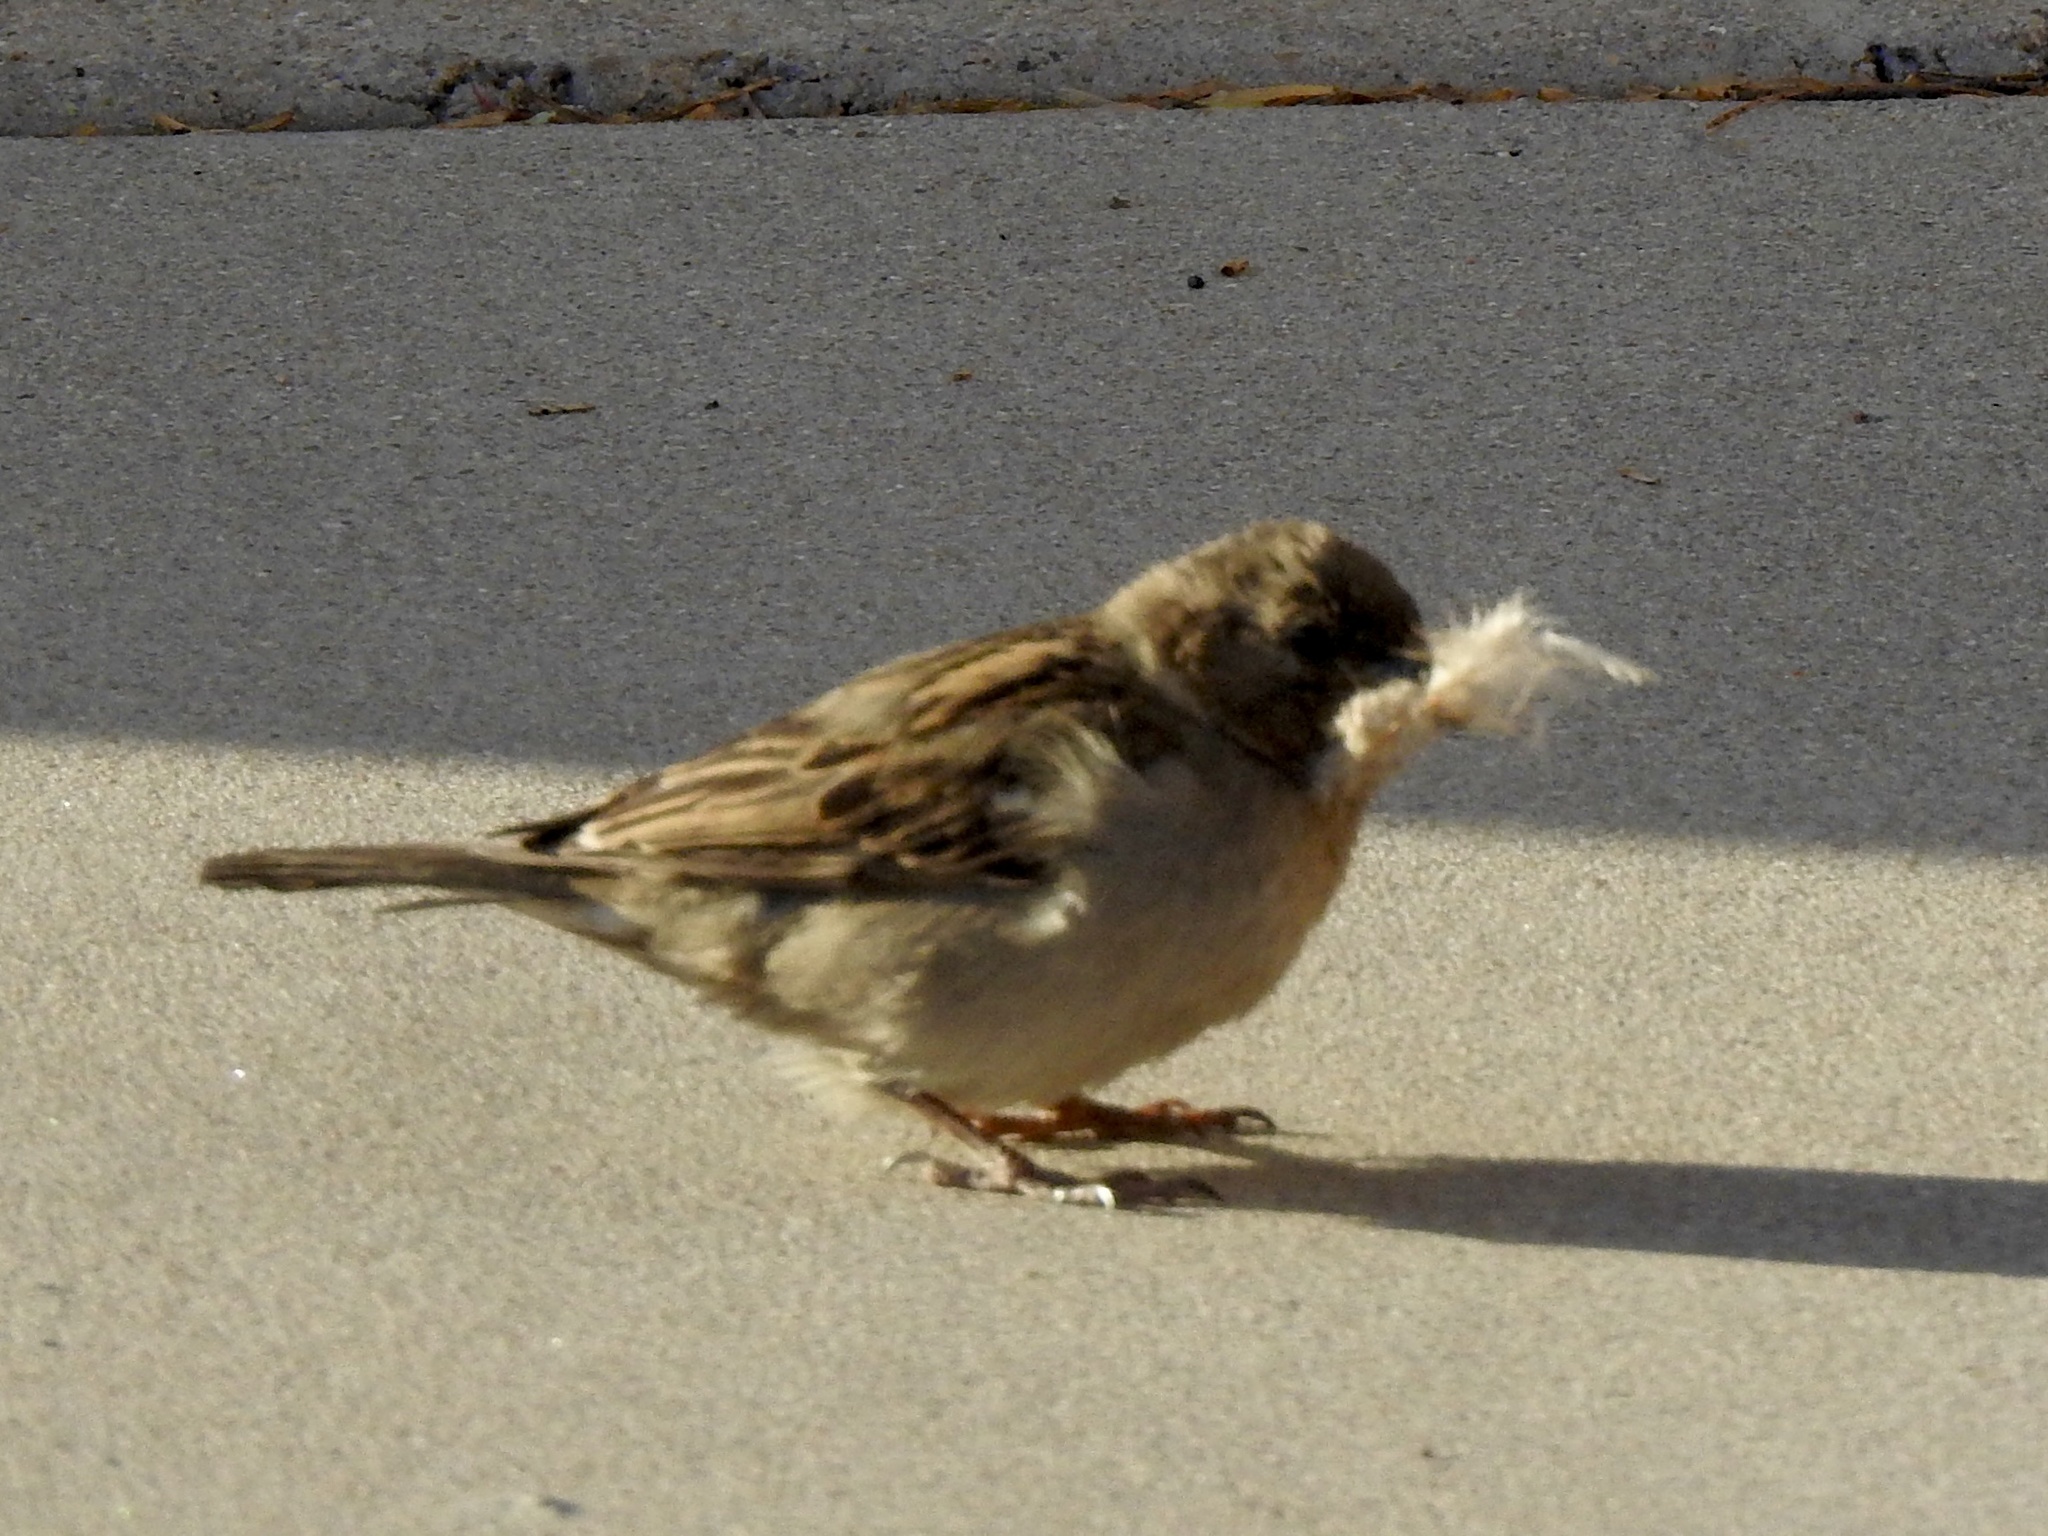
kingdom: Animalia
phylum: Chordata
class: Aves
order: Passeriformes
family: Passeridae
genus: Passer
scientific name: Passer domesticus
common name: House sparrow
